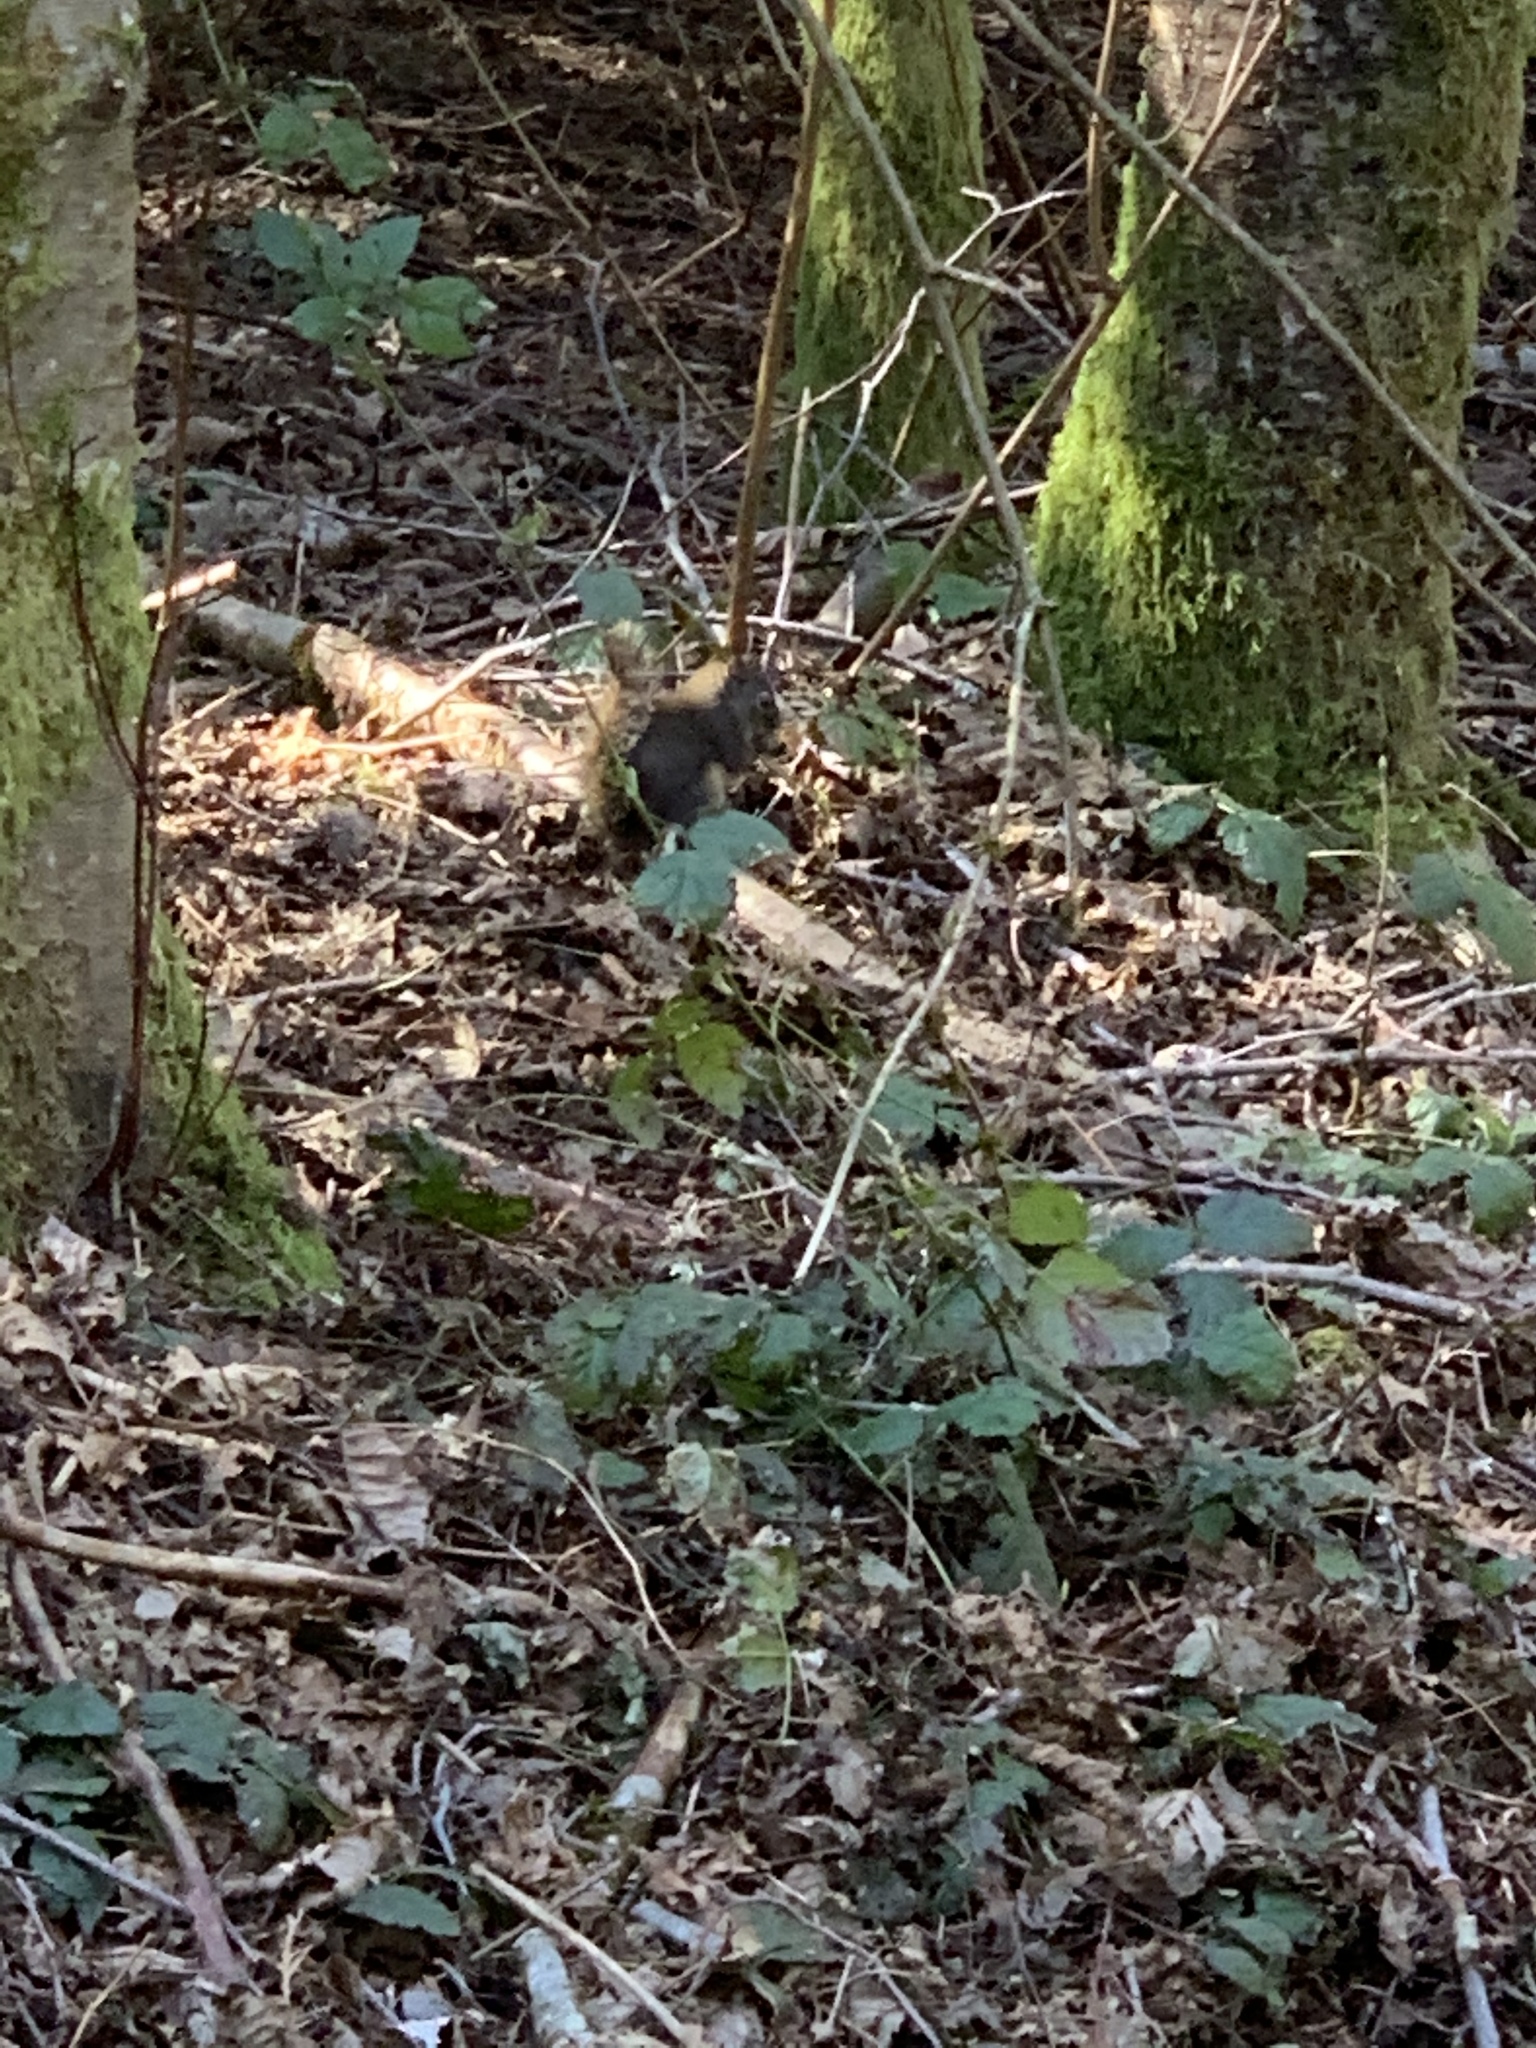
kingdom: Animalia
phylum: Chordata
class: Mammalia
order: Rodentia
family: Sciuridae
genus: Tamiasciurus
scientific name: Tamiasciurus douglasii
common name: Douglas's squirrel
